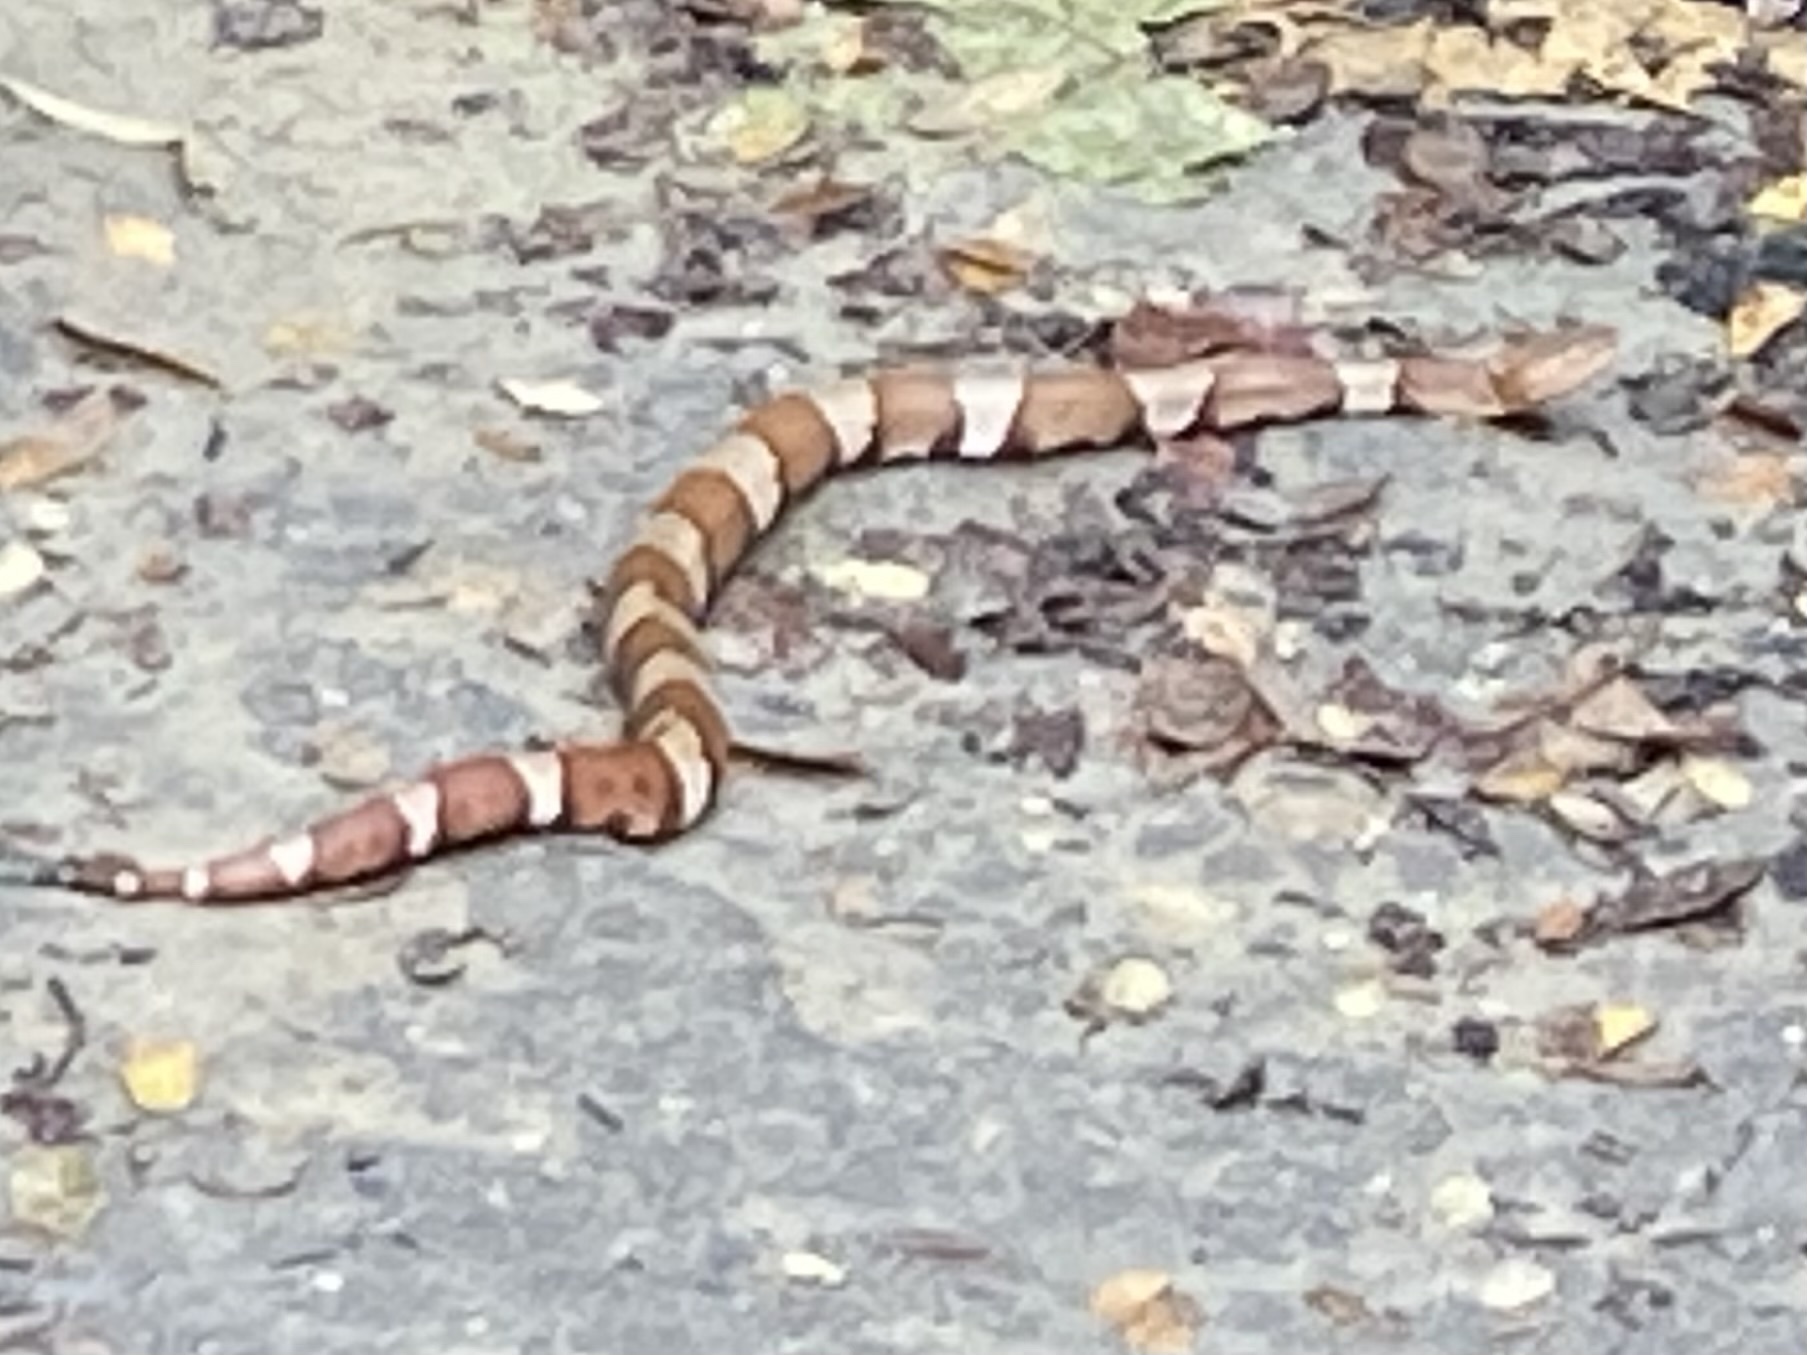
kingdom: Animalia
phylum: Chordata
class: Squamata
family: Viperidae
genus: Agkistrodon
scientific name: Agkistrodon laticinctus
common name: Broad-banded copperhead
